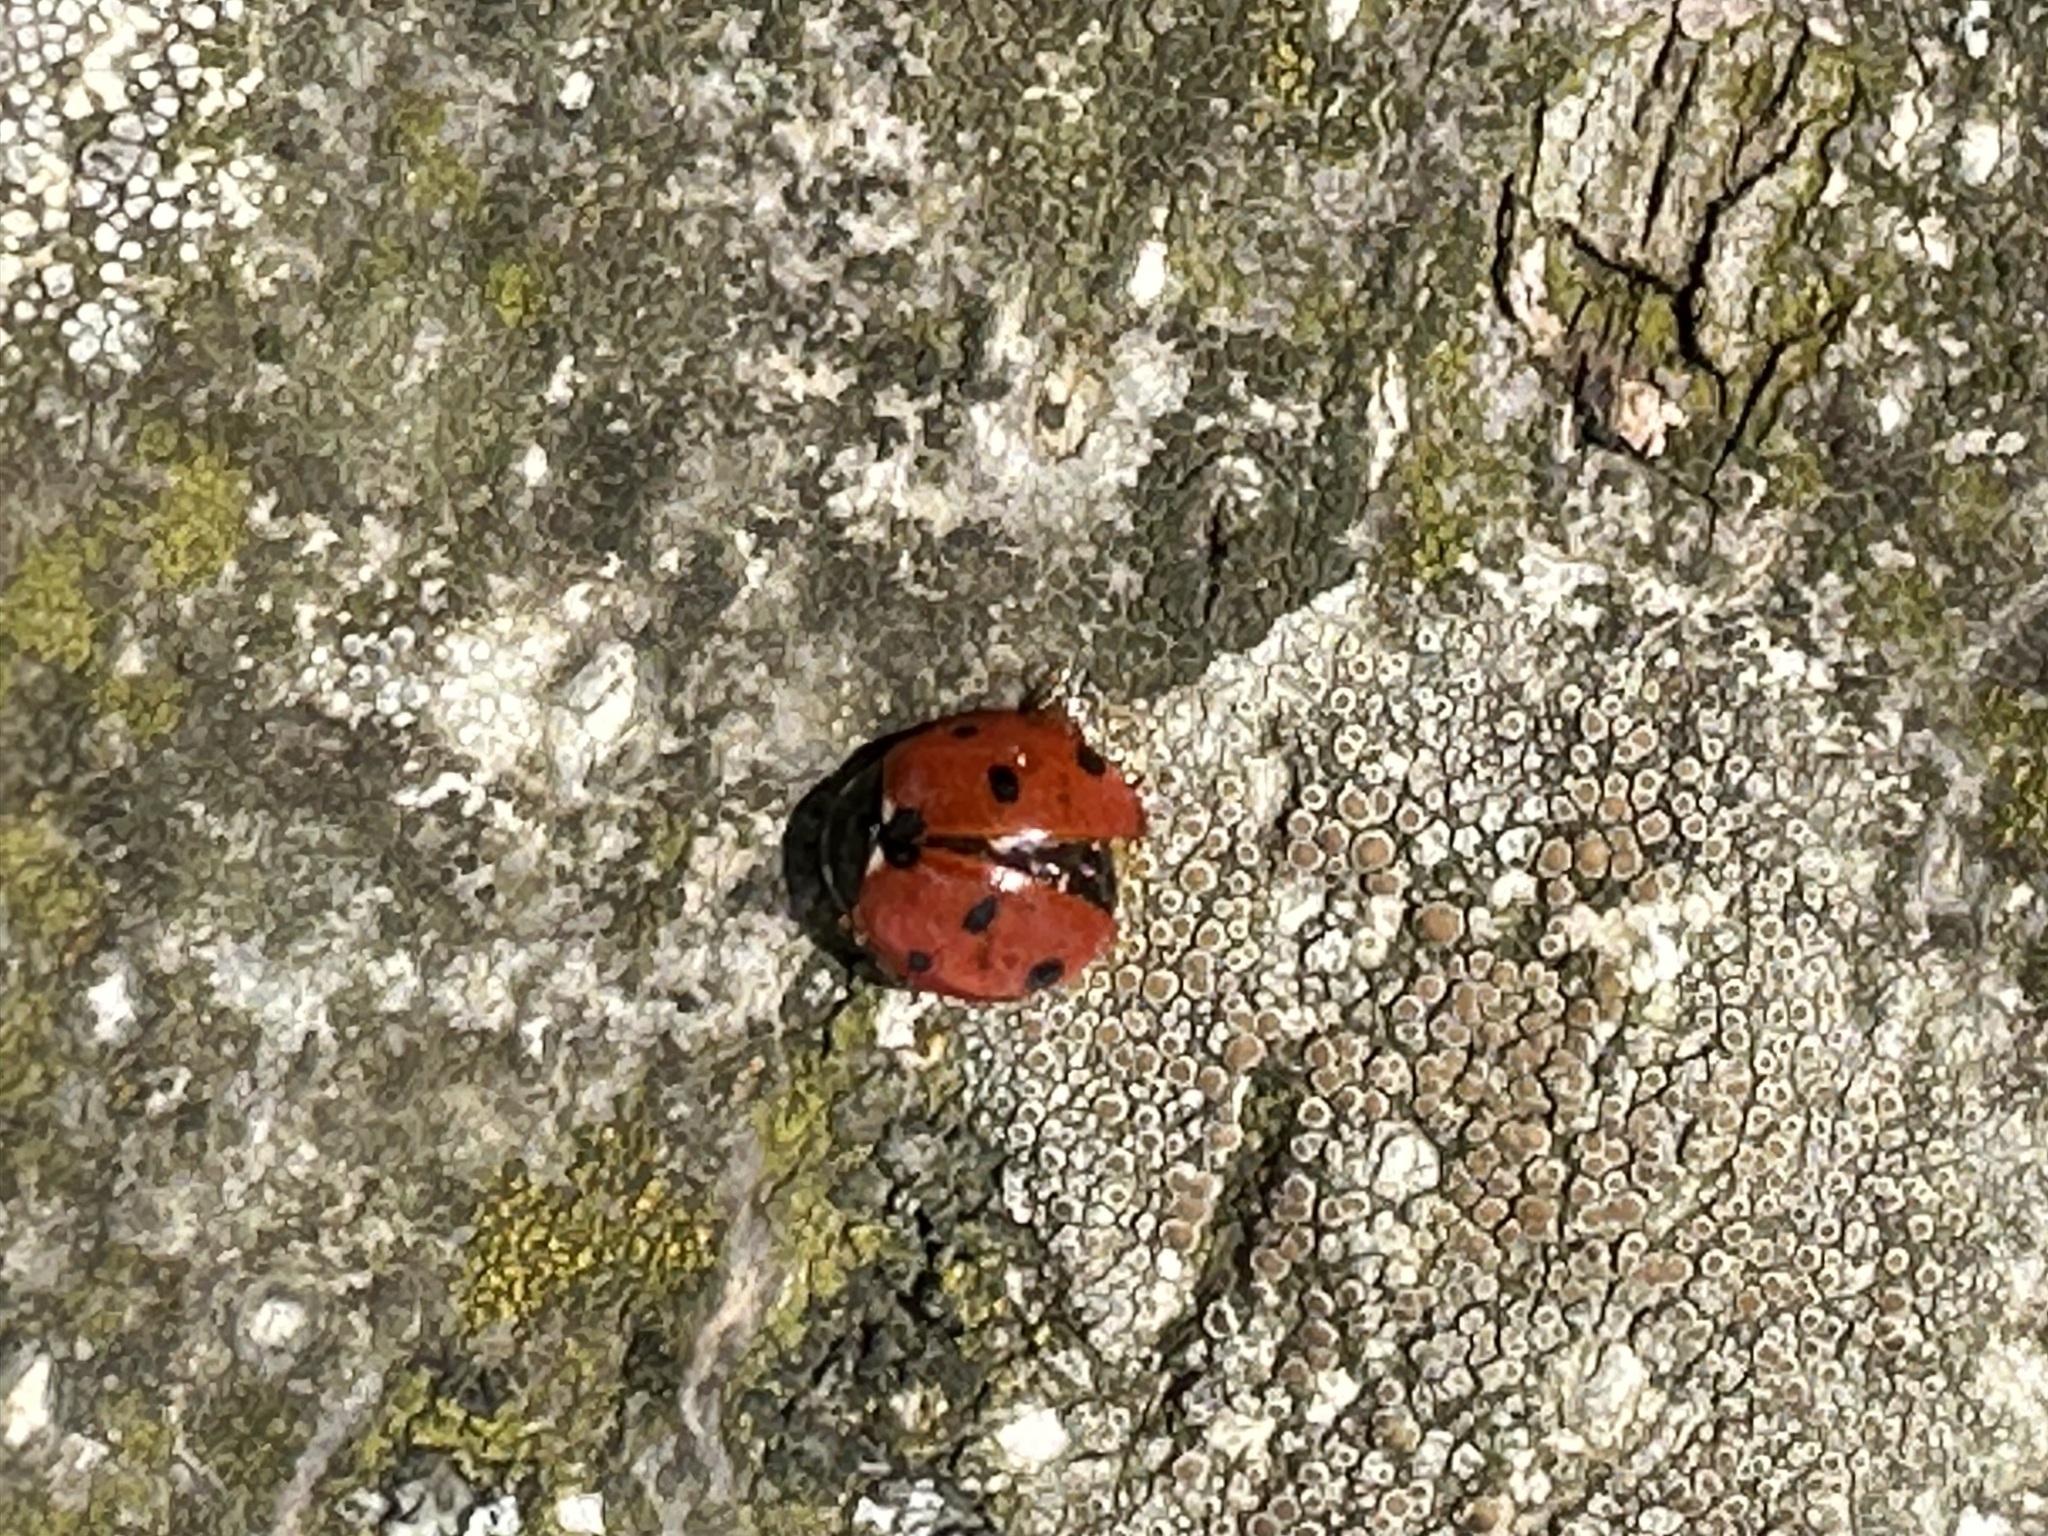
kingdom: Animalia
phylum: Arthropoda
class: Insecta
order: Coleoptera
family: Coccinellidae
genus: Coccinella
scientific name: Coccinella septempunctata
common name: Sevenspotted lady beetle
